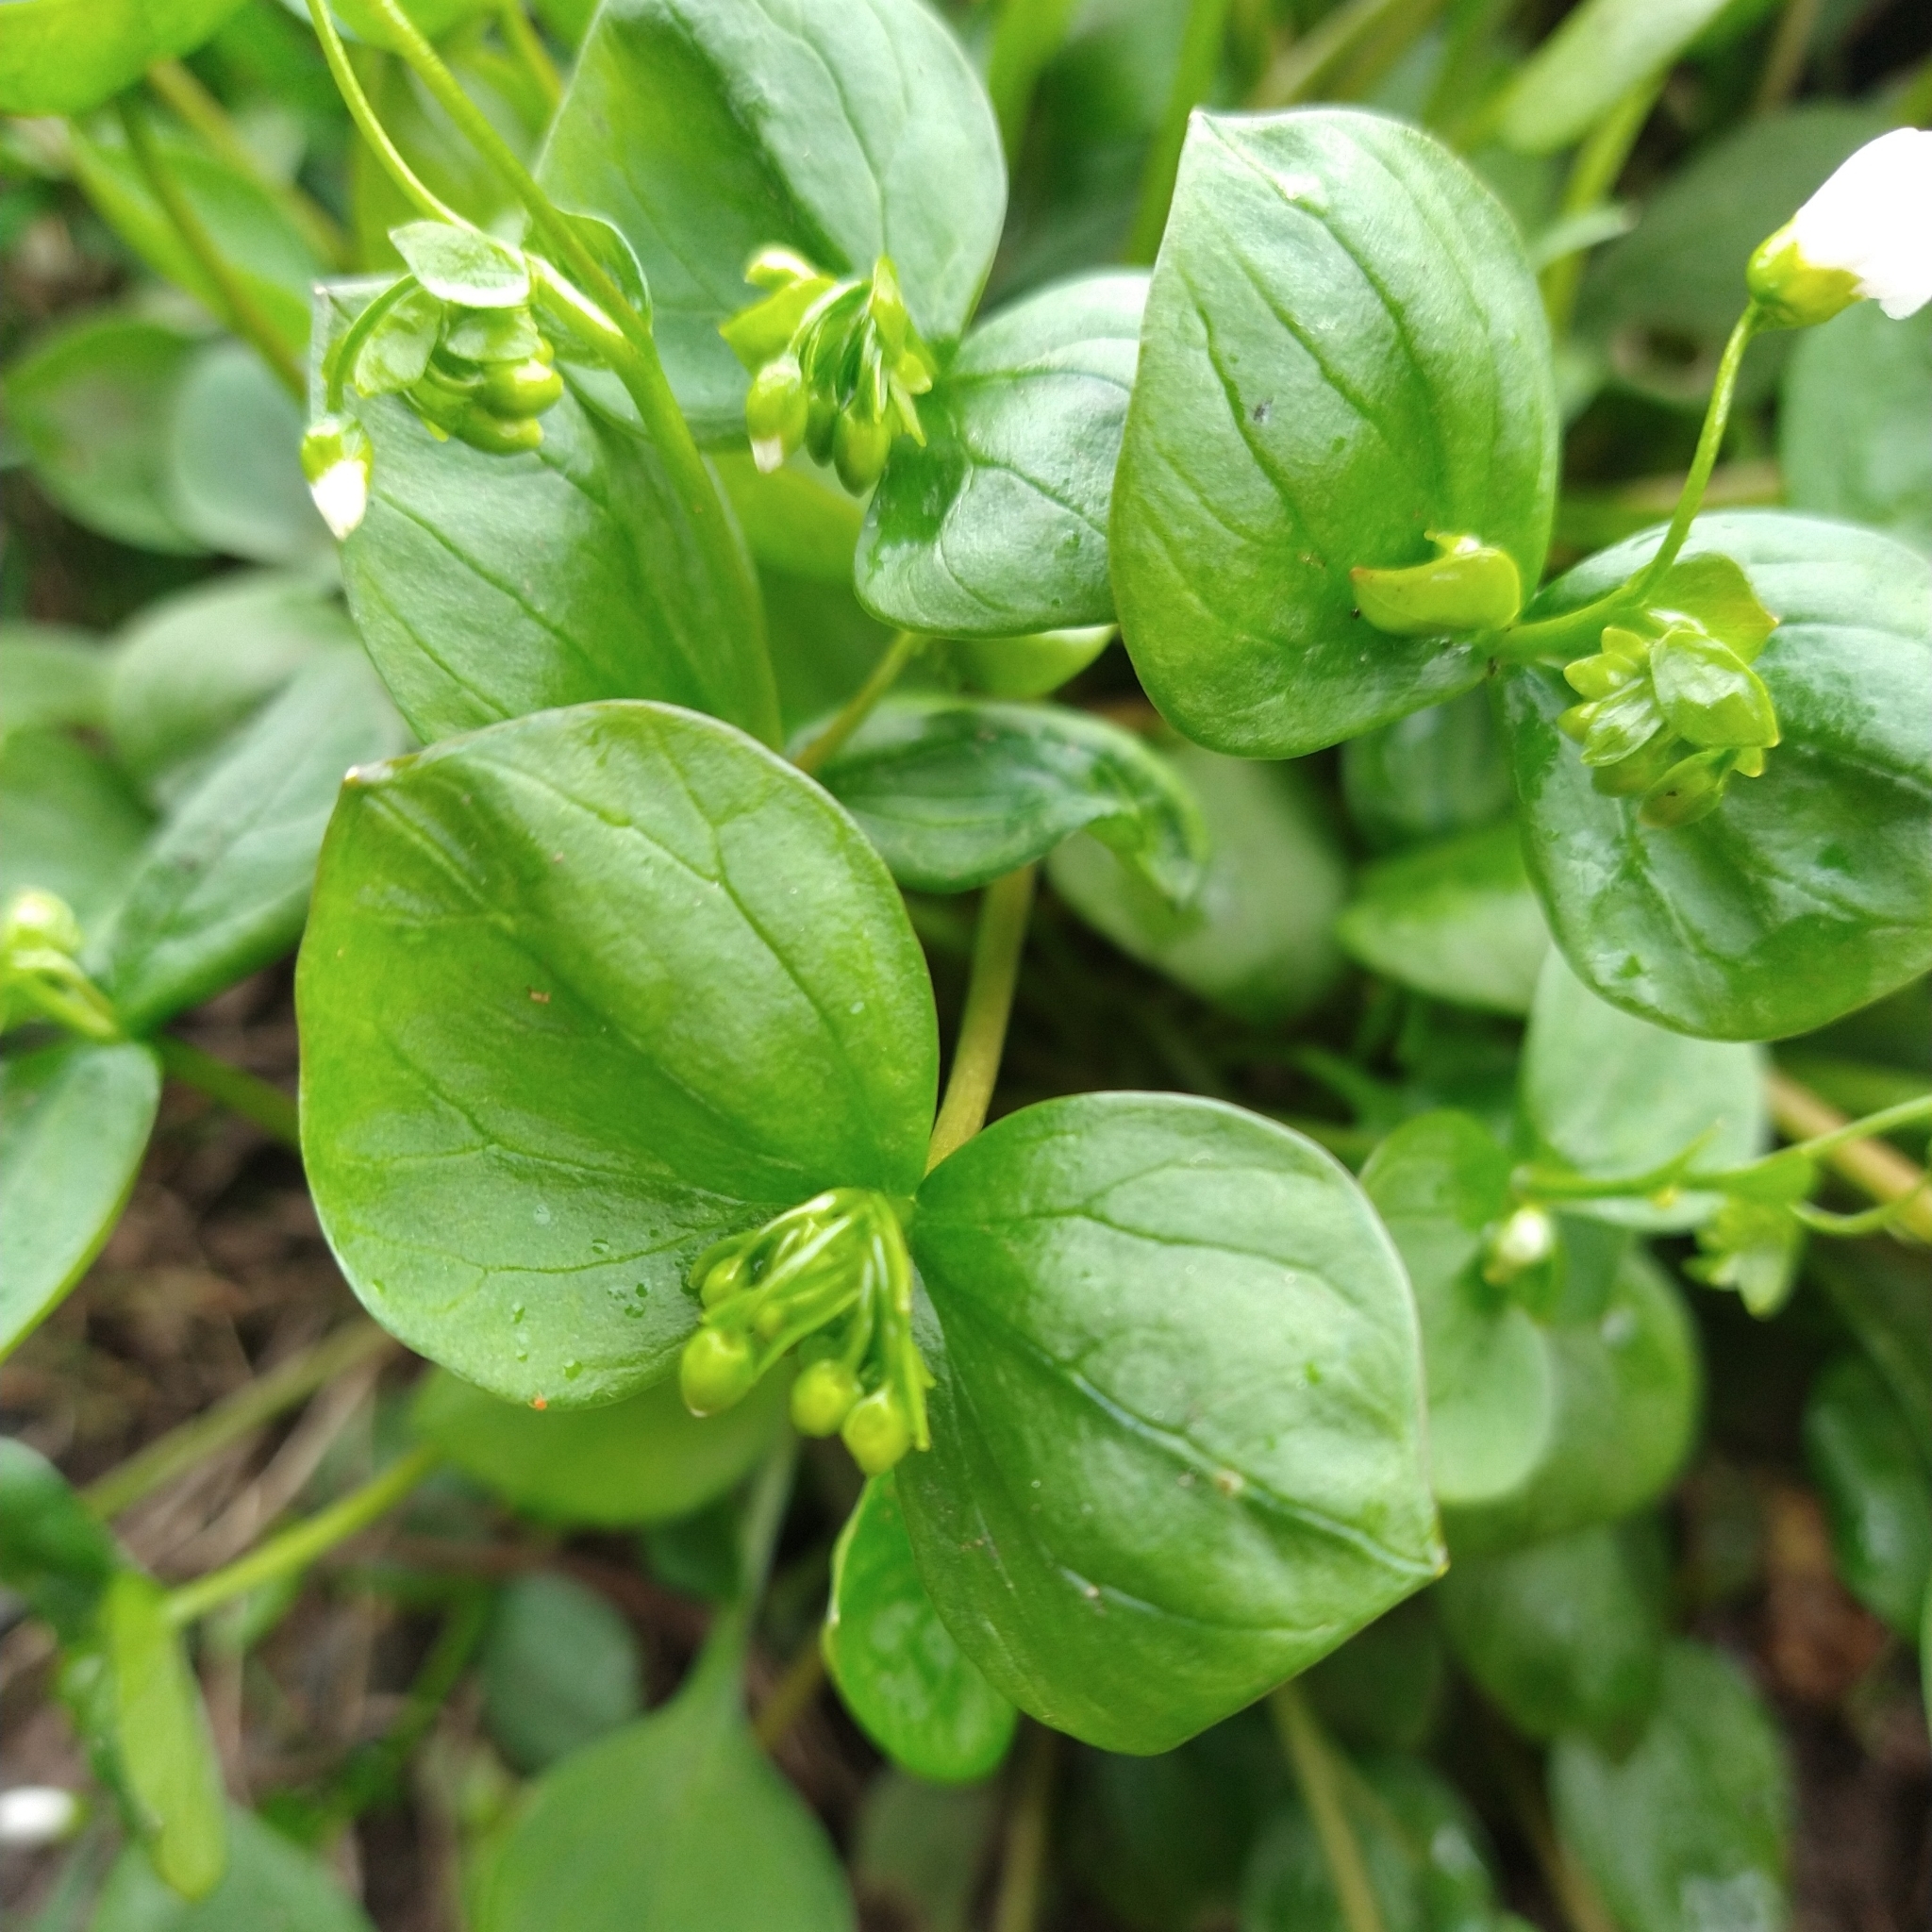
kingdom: Plantae
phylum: Tracheophyta
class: Magnoliopsida
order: Caryophyllales
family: Montiaceae
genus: Claytonia
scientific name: Claytonia sibirica
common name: Pink purslane
